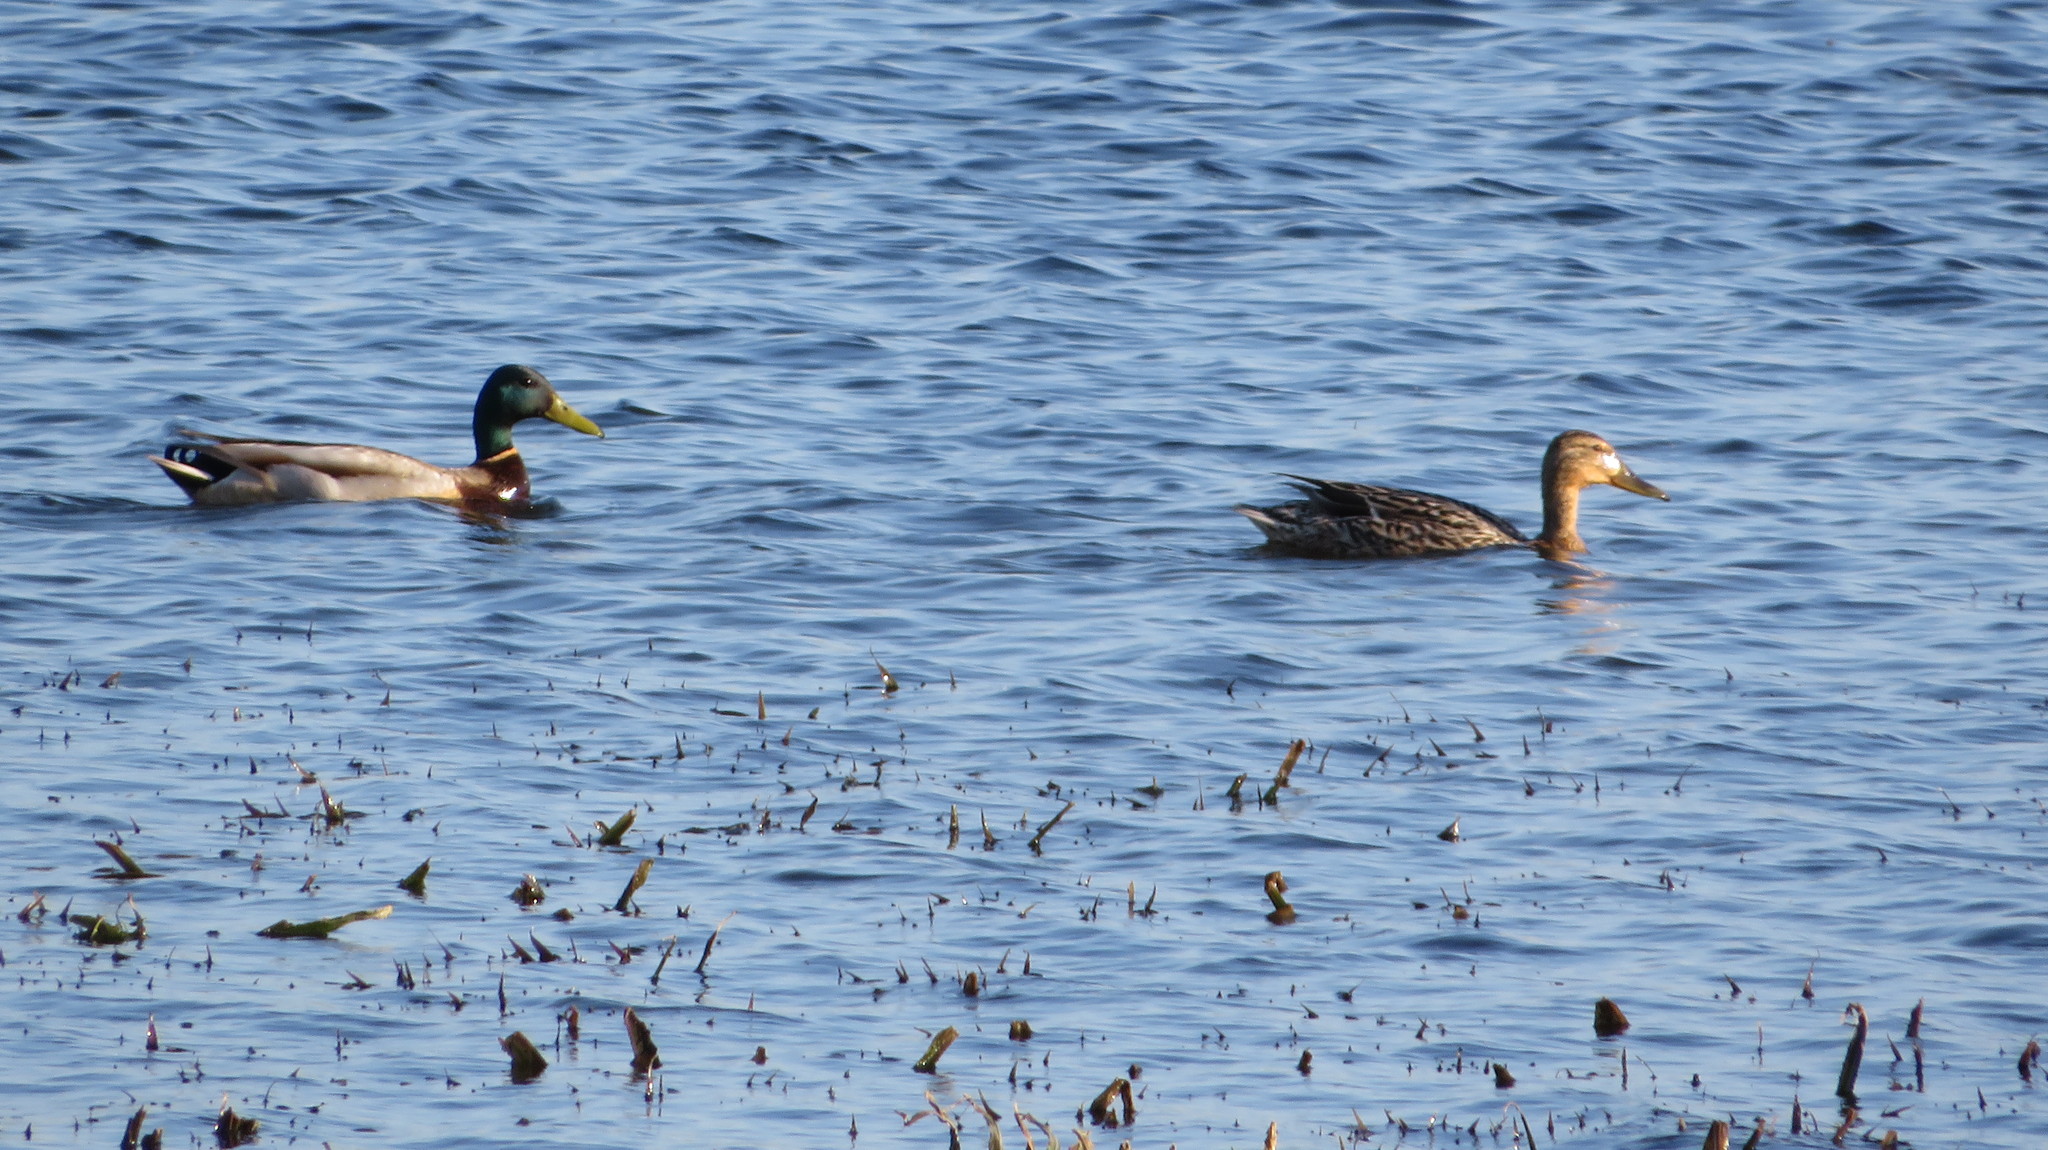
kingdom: Animalia
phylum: Chordata
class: Aves
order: Anseriformes
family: Anatidae
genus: Anas
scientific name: Anas platyrhynchos
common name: Mallard
